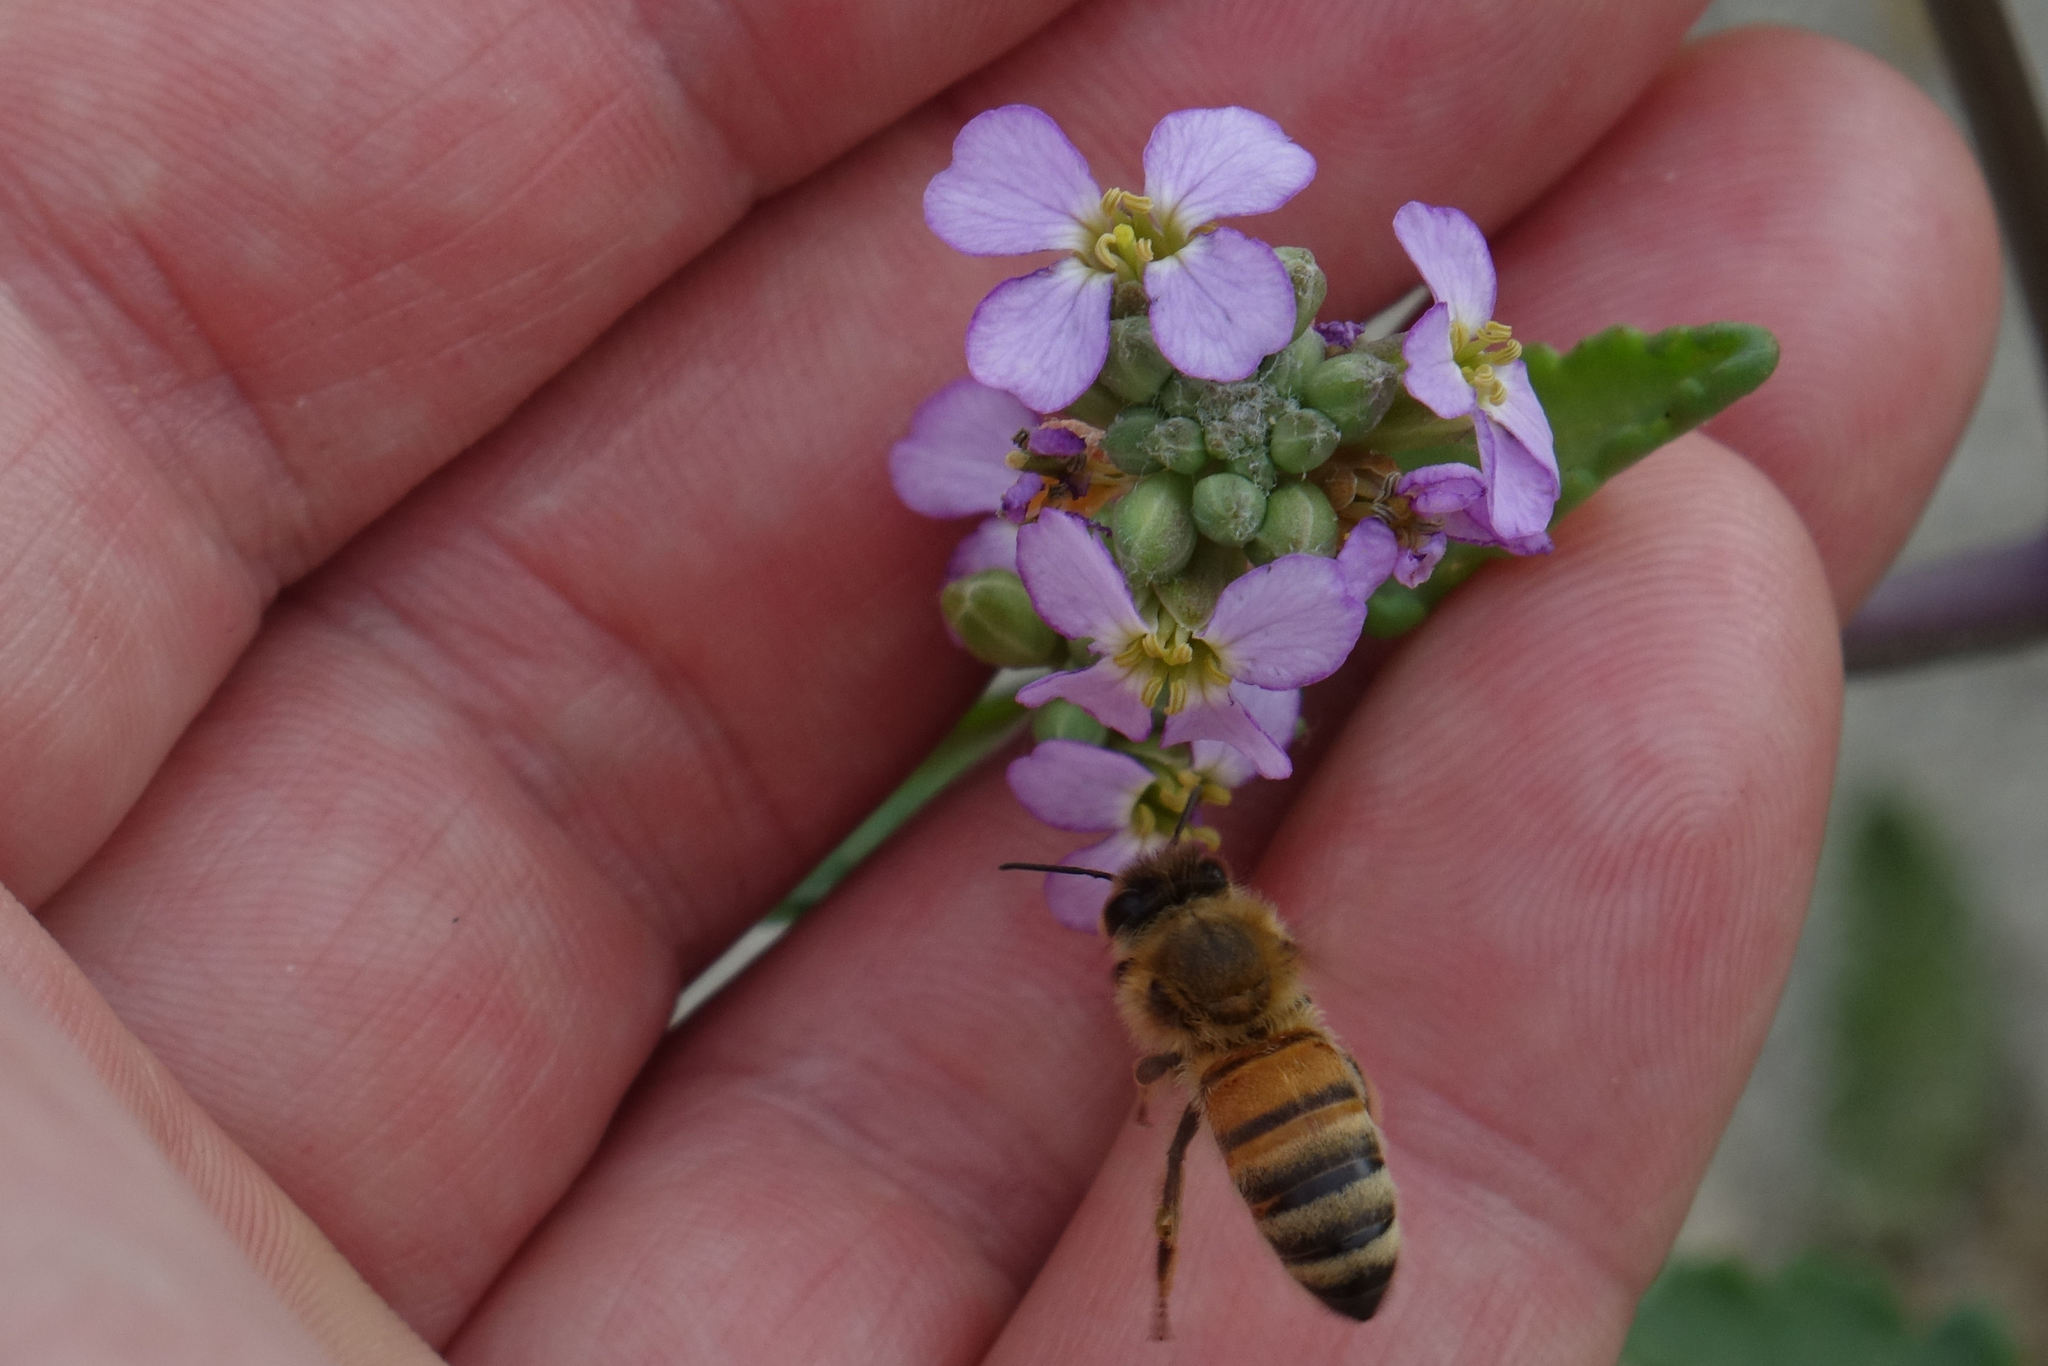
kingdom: Animalia
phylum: Arthropoda
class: Insecta
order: Hymenoptera
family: Apidae
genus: Apis
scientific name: Apis mellifera
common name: Honey bee
